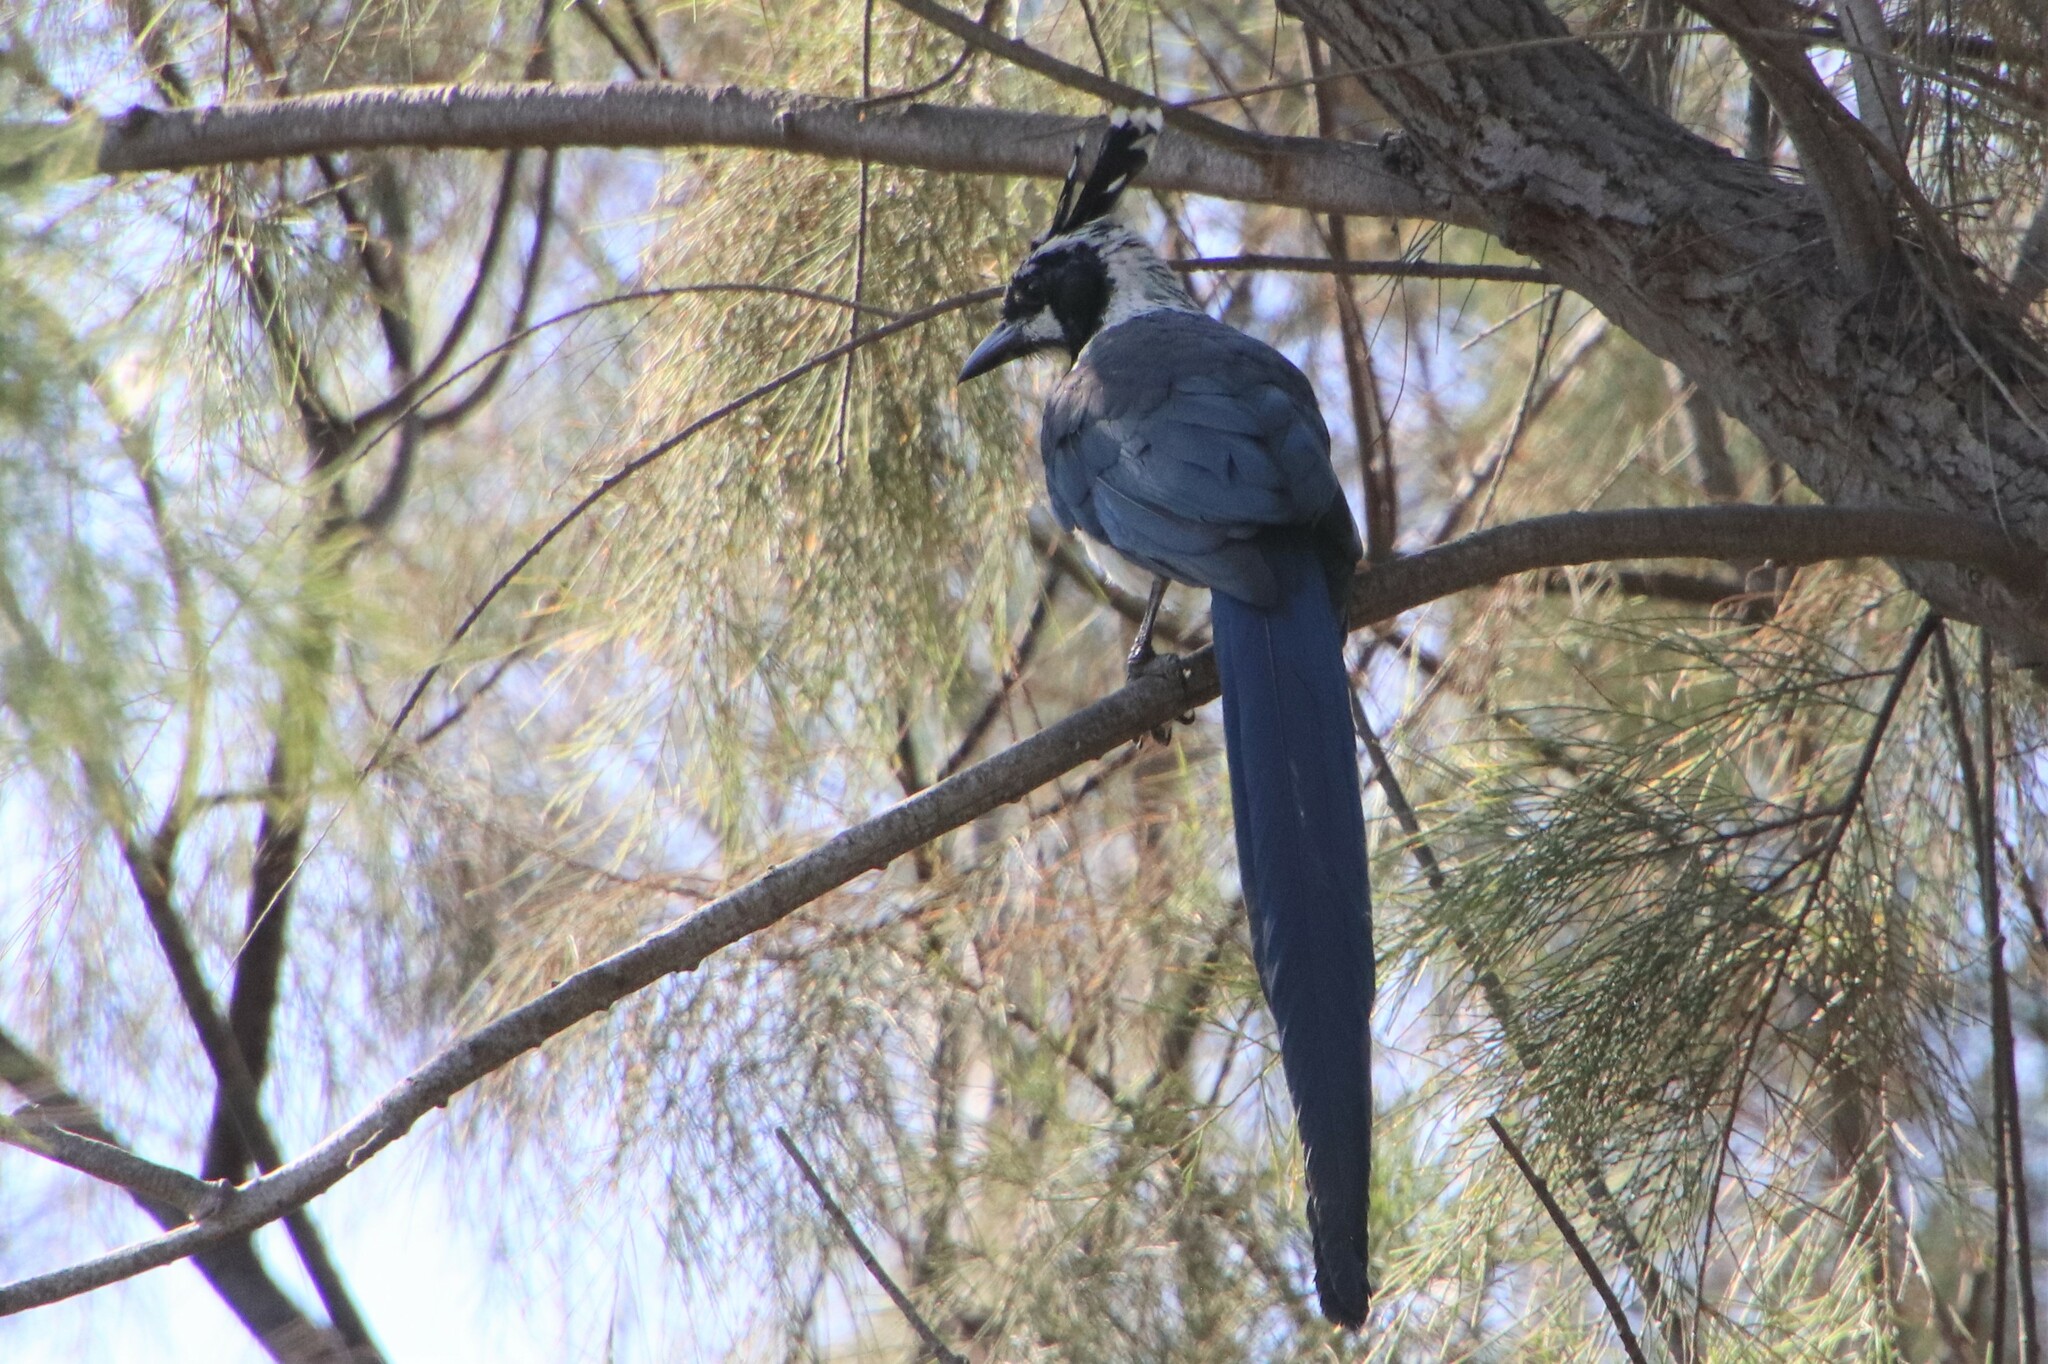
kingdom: Animalia
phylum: Chordata
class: Aves
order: Passeriformes
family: Corvidae
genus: Calocitta
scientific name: Calocitta colliei
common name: Black-throated magpie-jay
